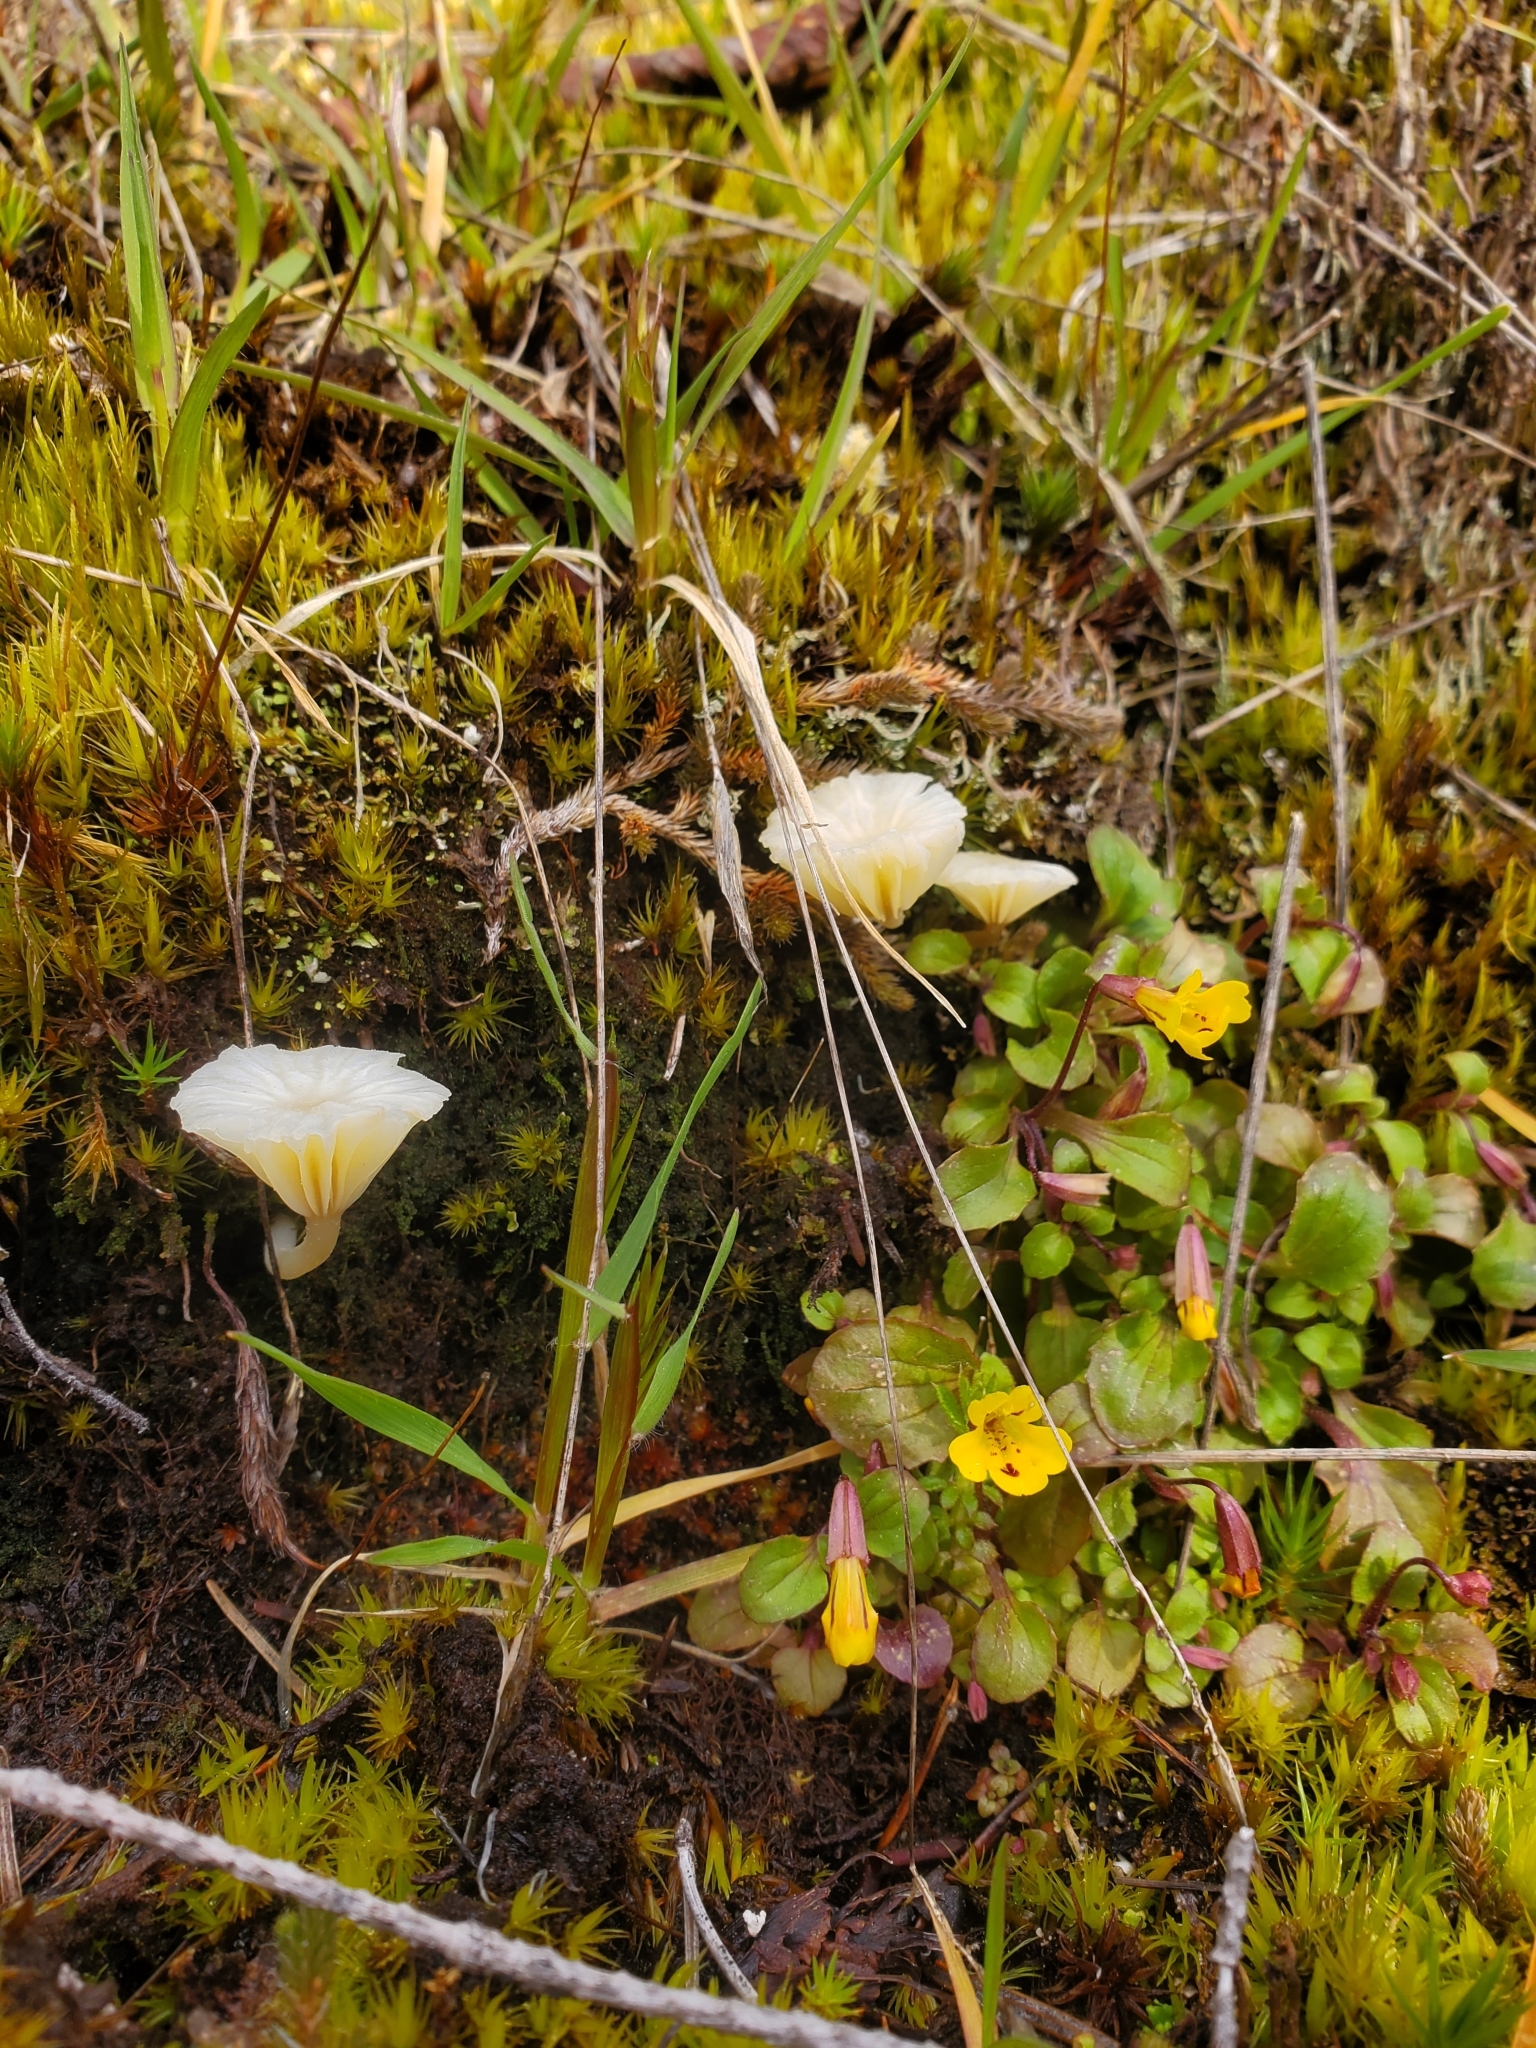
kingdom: Plantae
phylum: Tracheophyta
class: Magnoliopsida
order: Lamiales
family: Phrymaceae
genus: Erythranthe
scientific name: Erythranthe alsinoides
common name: Chickweed monkeyflower
